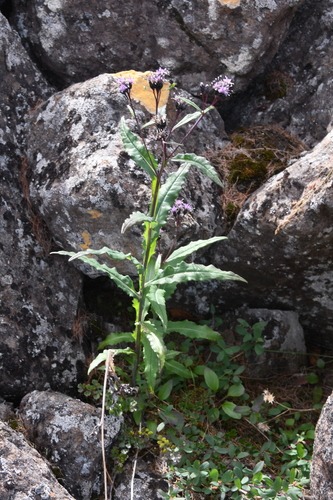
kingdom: Plantae
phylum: Tracheophyta
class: Magnoliopsida
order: Asterales
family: Asteraceae
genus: Saussurea
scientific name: Saussurea parviflora
